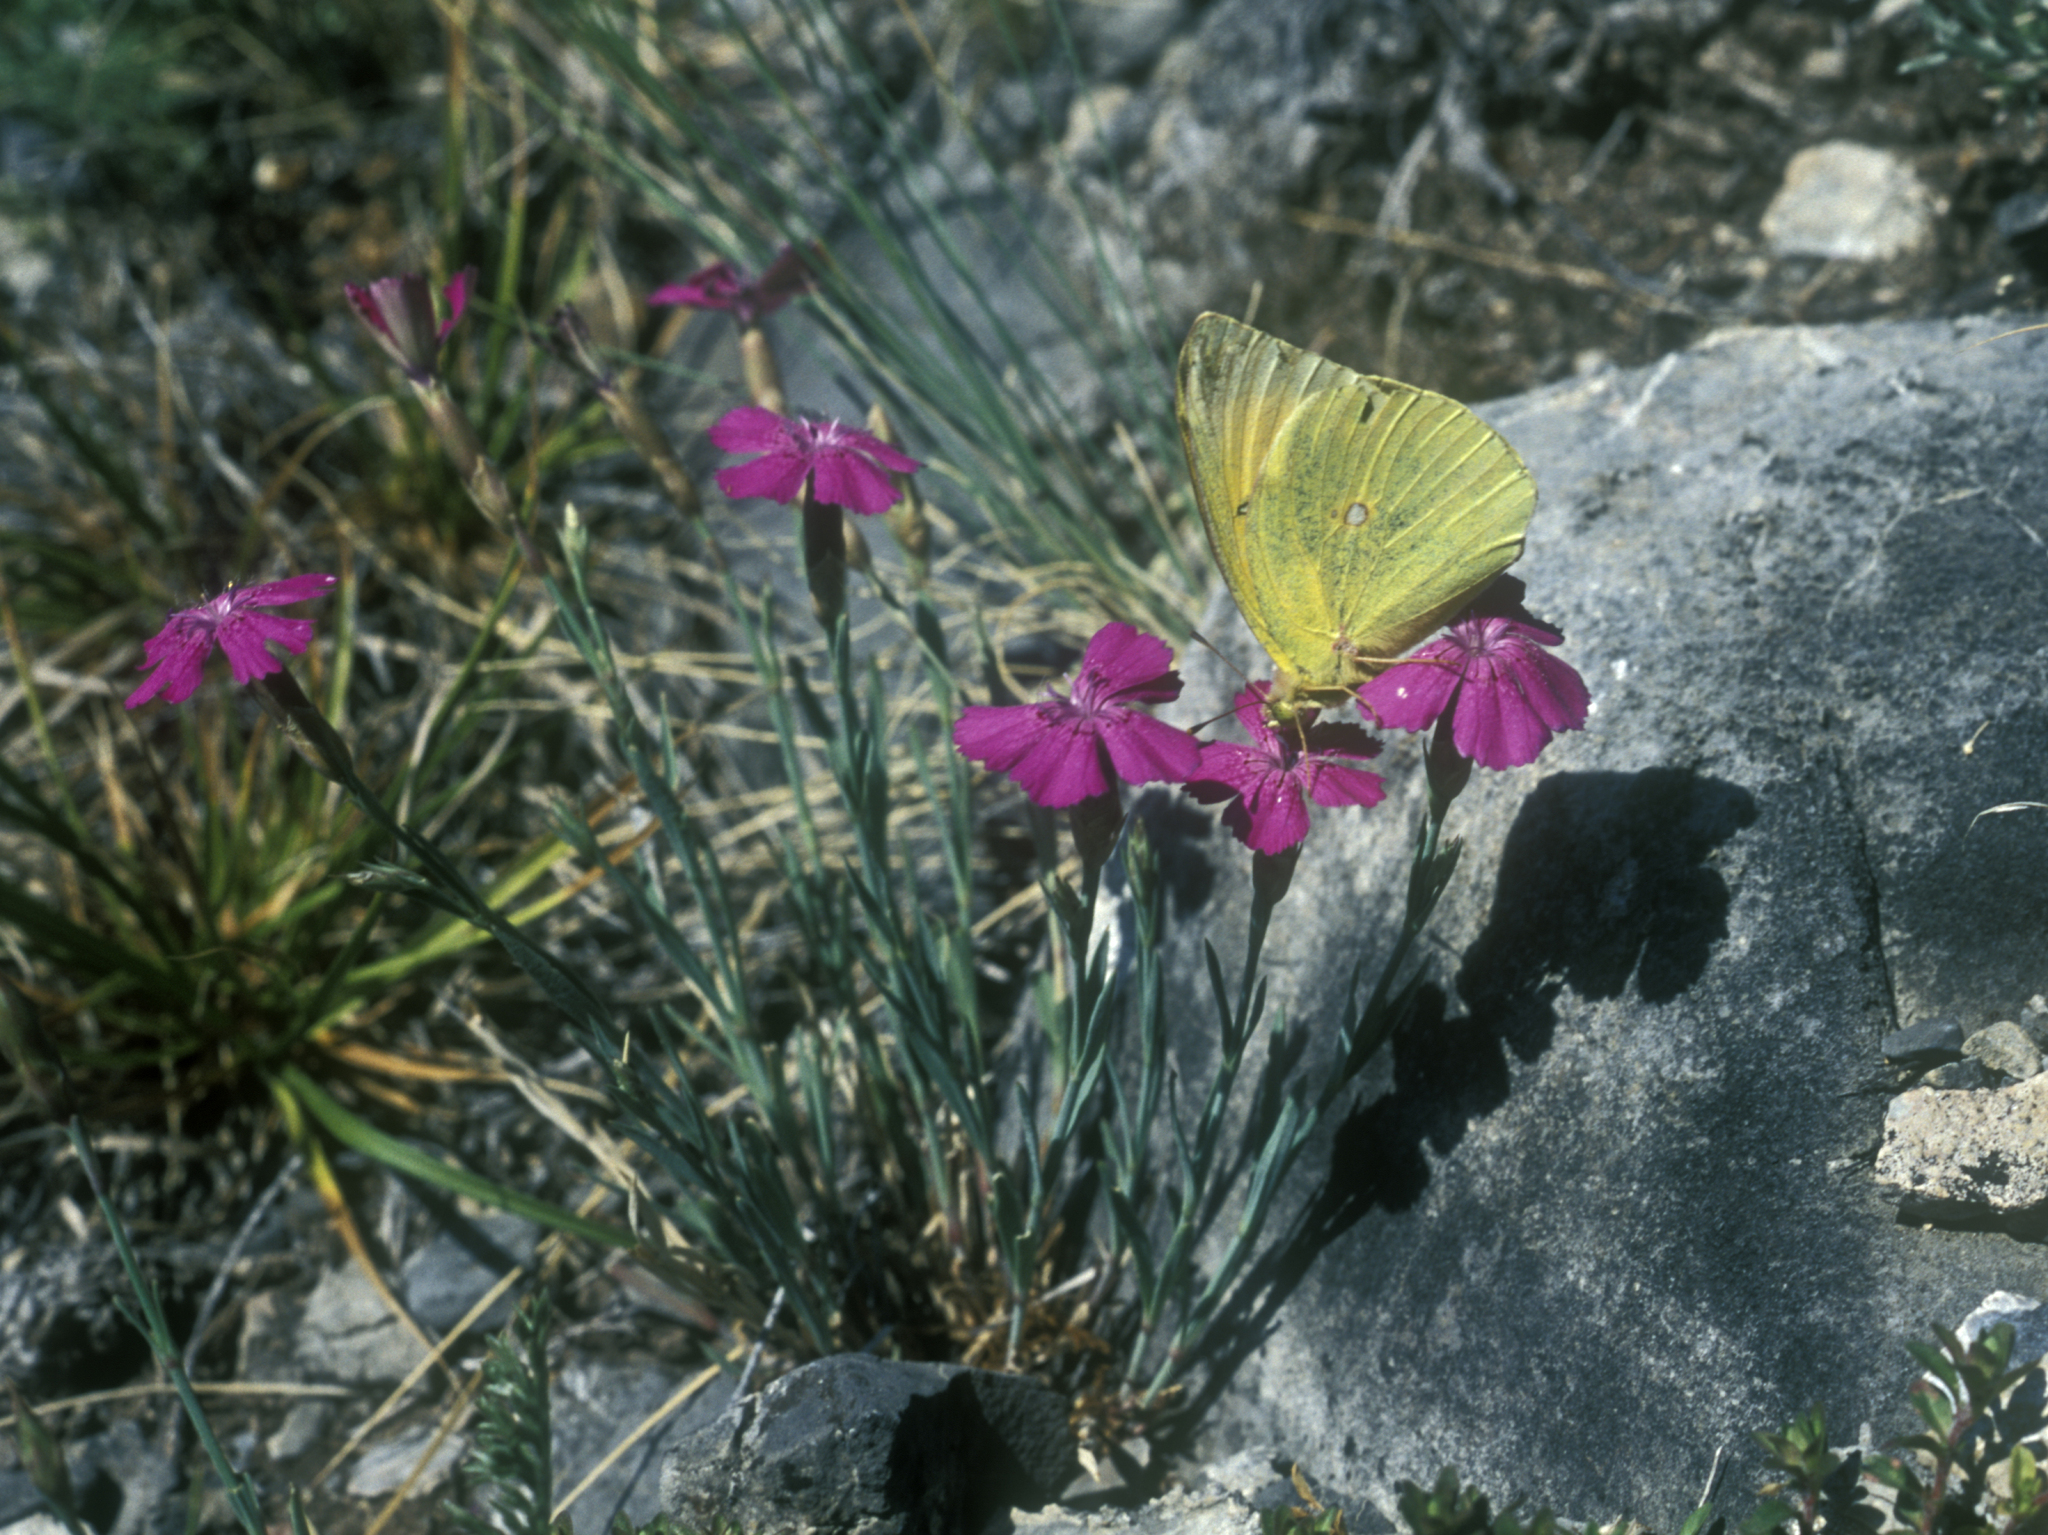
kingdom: Animalia
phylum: Arthropoda
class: Insecta
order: Lepidoptera
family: Pieridae
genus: Colias
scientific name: Colias heos
